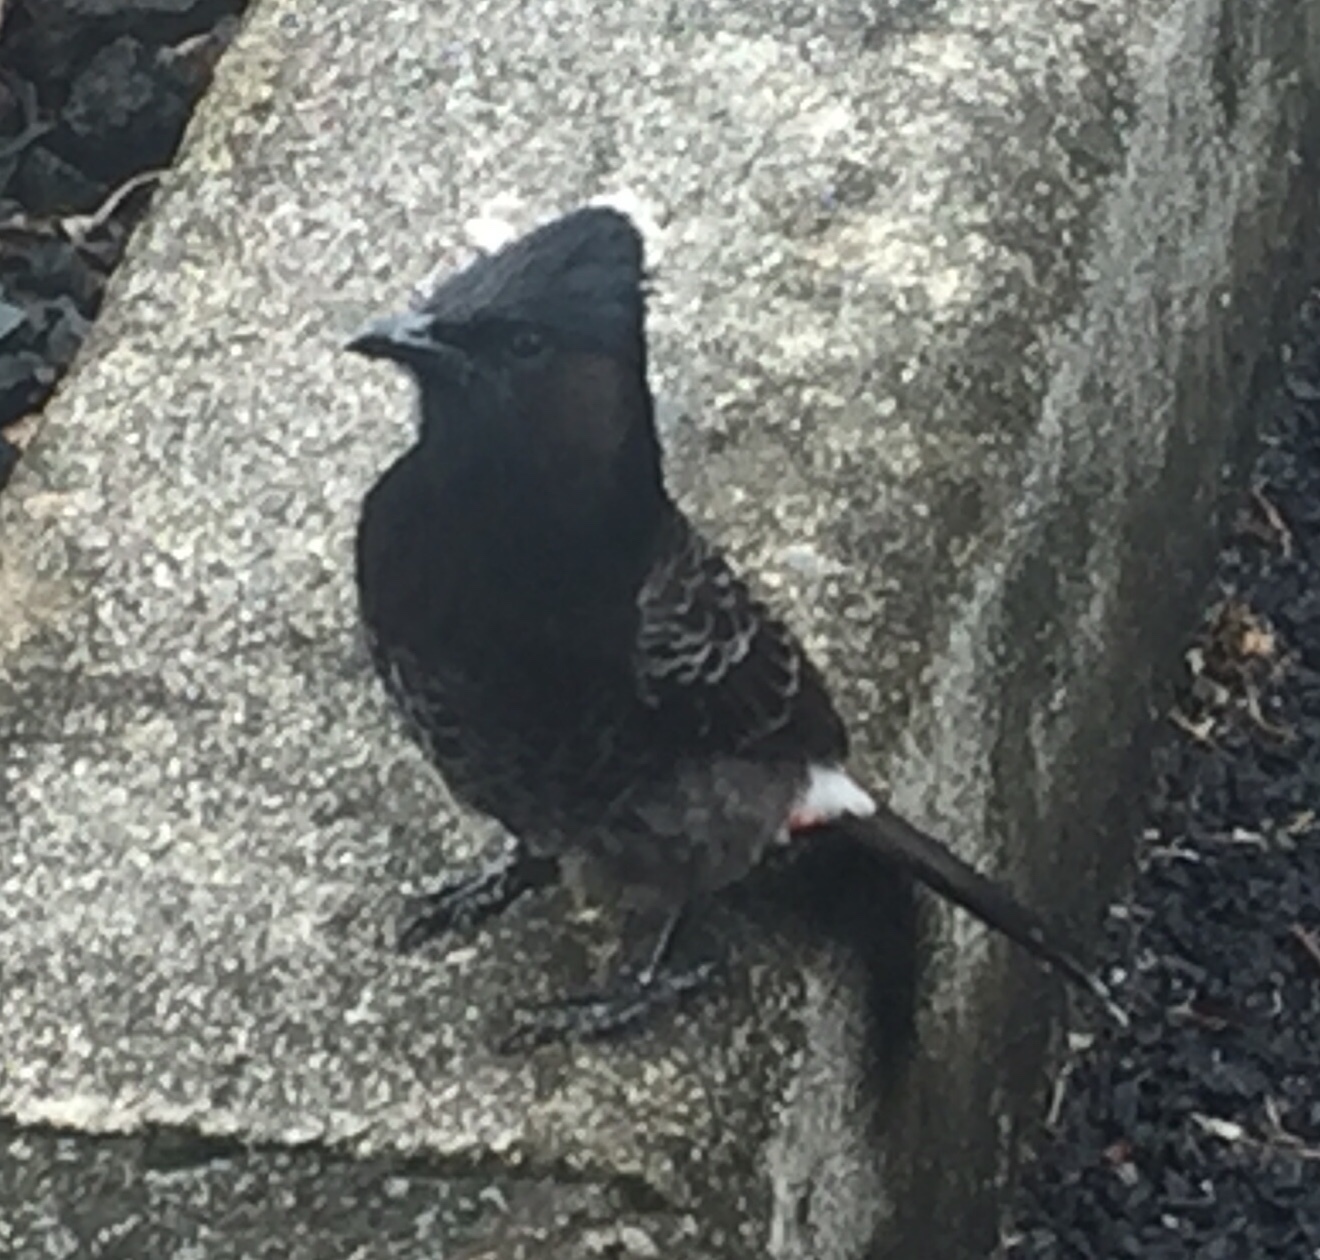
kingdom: Animalia
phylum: Chordata
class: Aves
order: Passeriformes
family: Pycnonotidae
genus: Pycnonotus
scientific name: Pycnonotus cafer
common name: Red-vented bulbul
